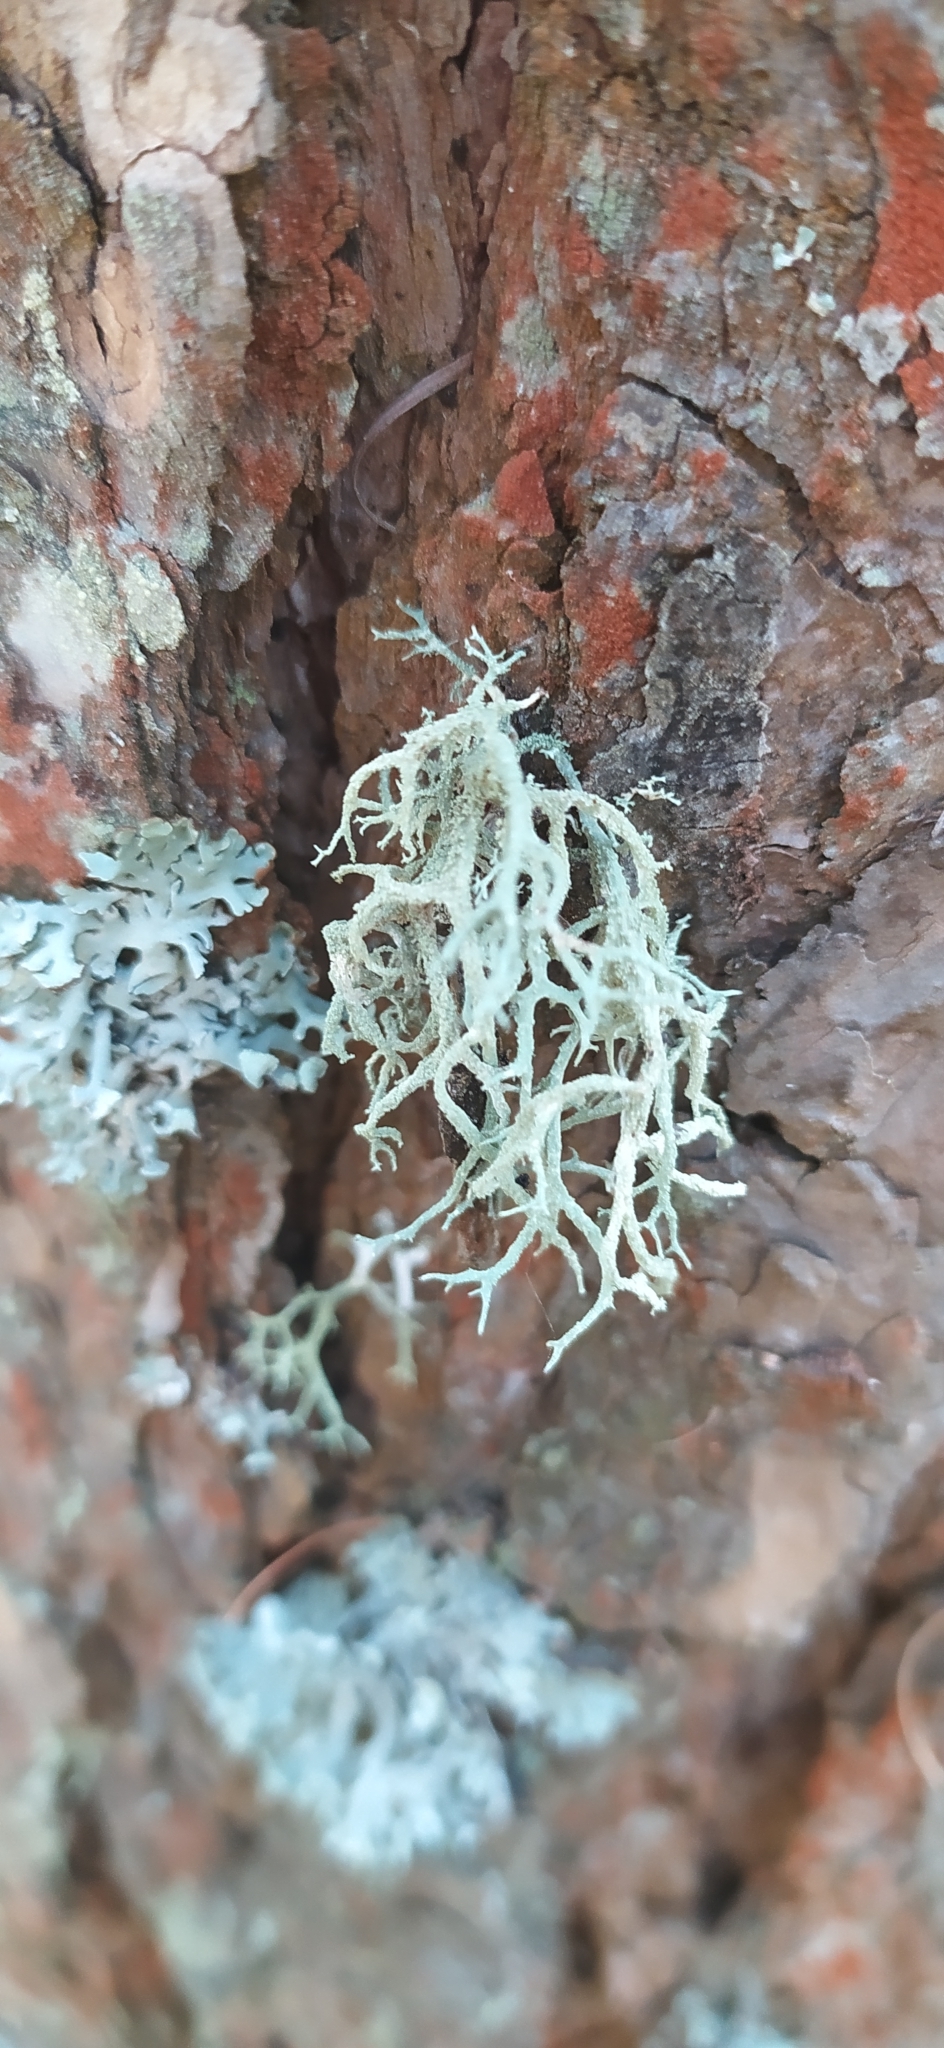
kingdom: Fungi
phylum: Ascomycota
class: Lecanoromycetes
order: Lecanorales
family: Parmeliaceae
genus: Evernia
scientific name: Evernia mesomorpha
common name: Boreal oak moss lichen
